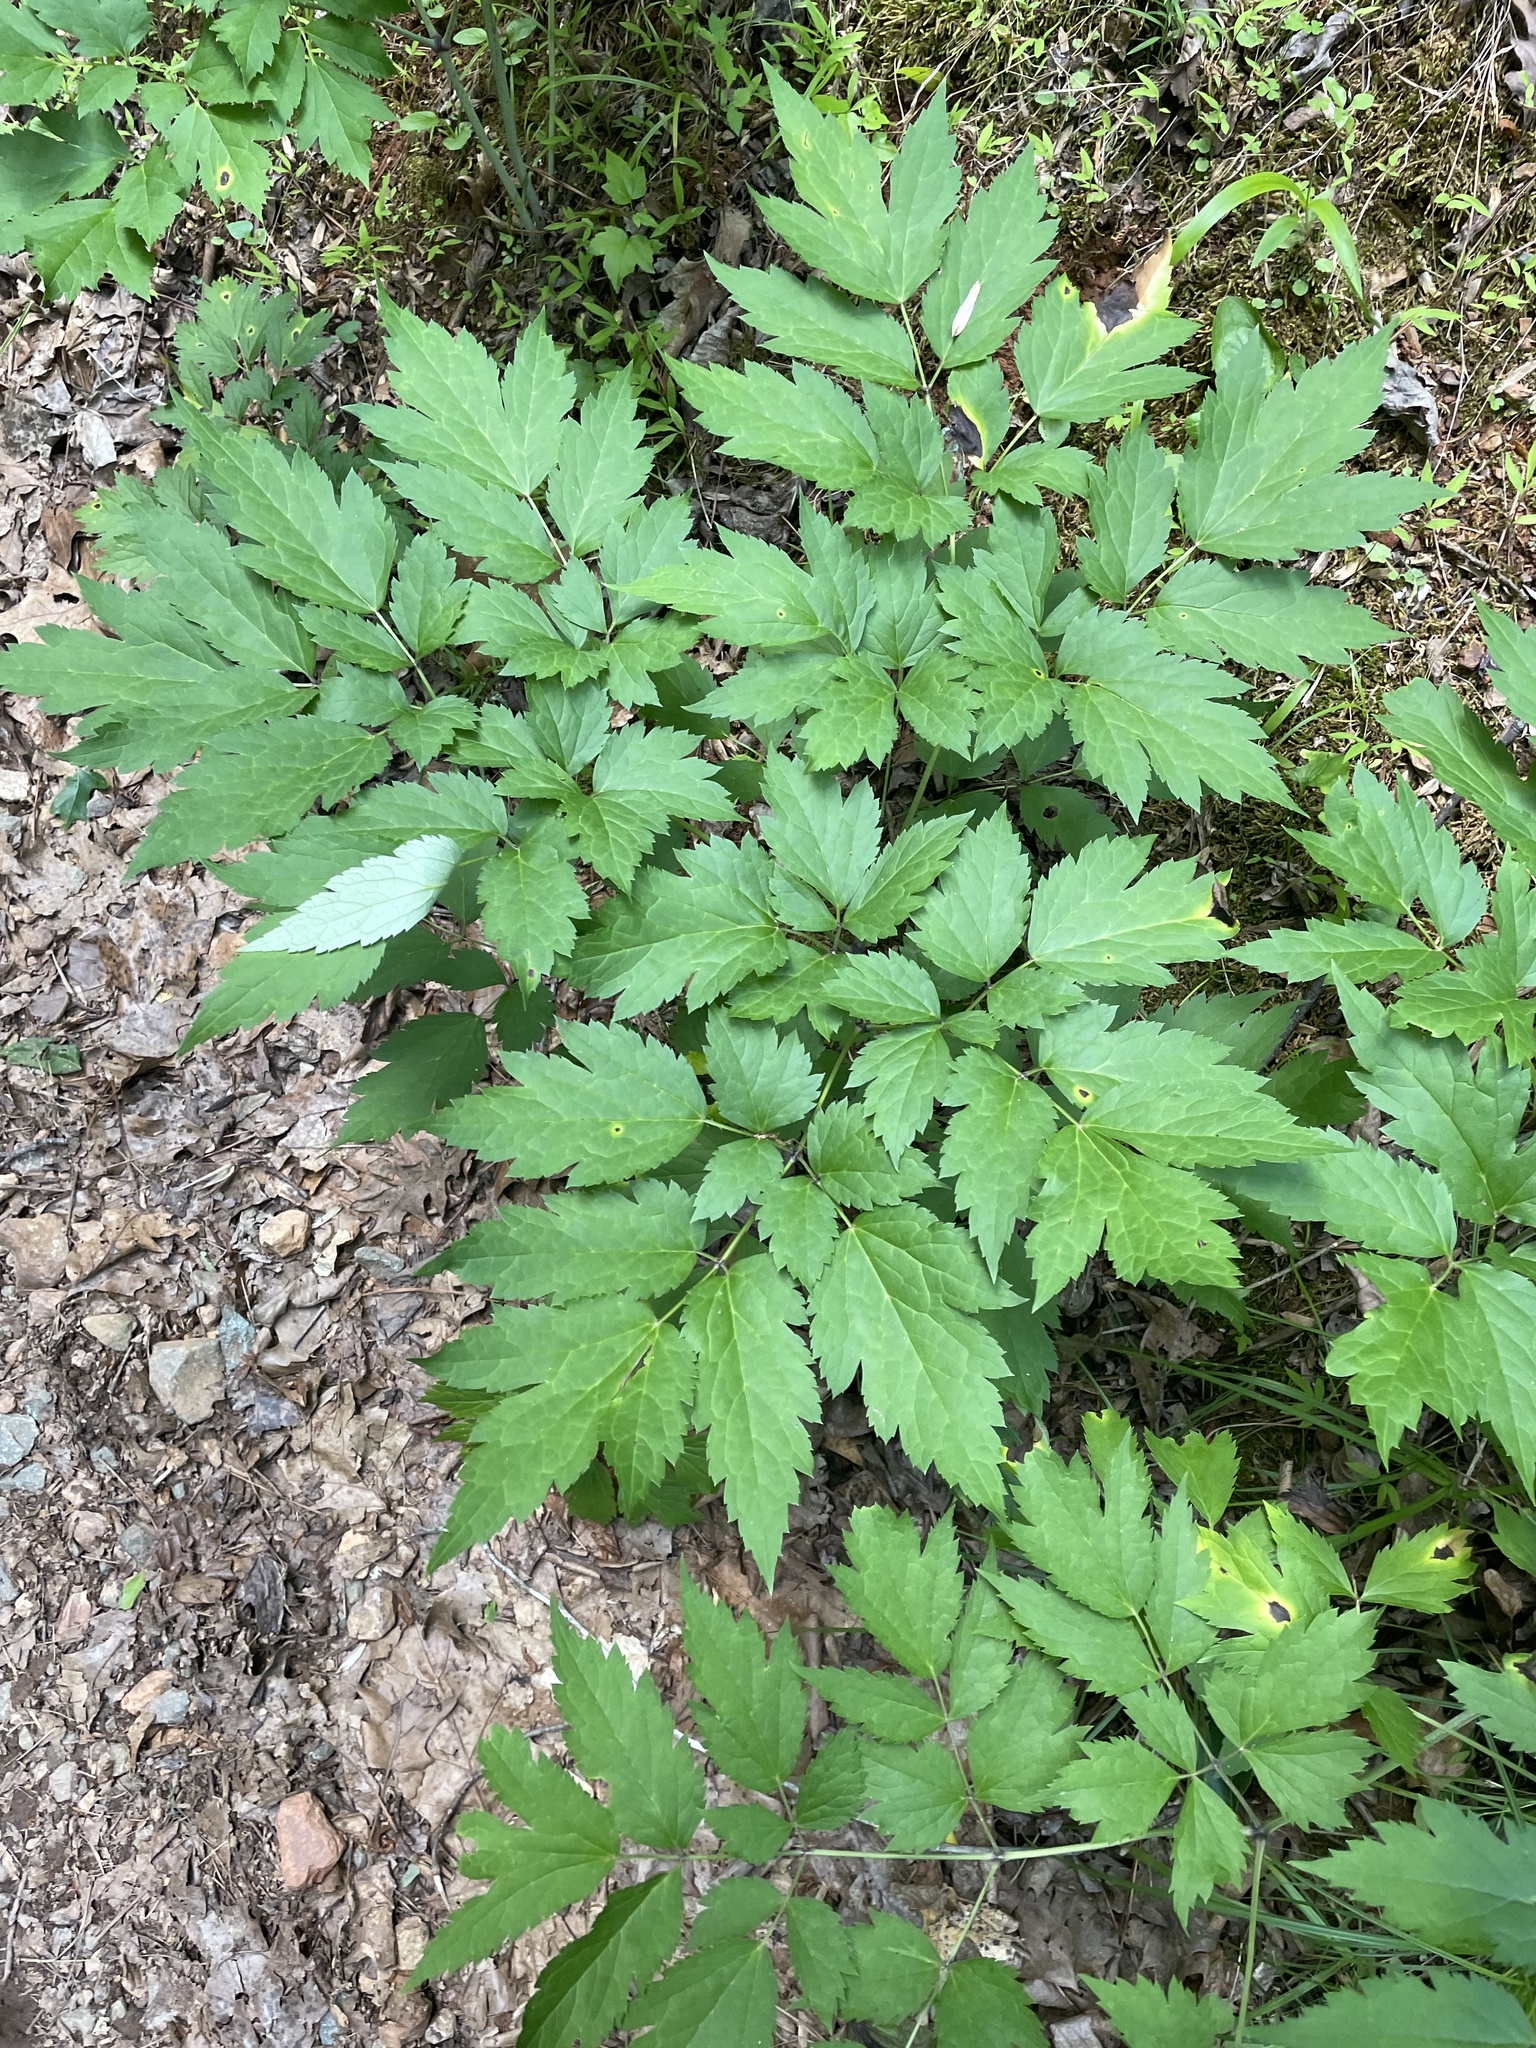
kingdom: Plantae
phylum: Tracheophyta
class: Magnoliopsida
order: Ranunculales
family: Ranunculaceae
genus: Actaea
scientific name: Actaea racemosa
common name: Black cohosh
